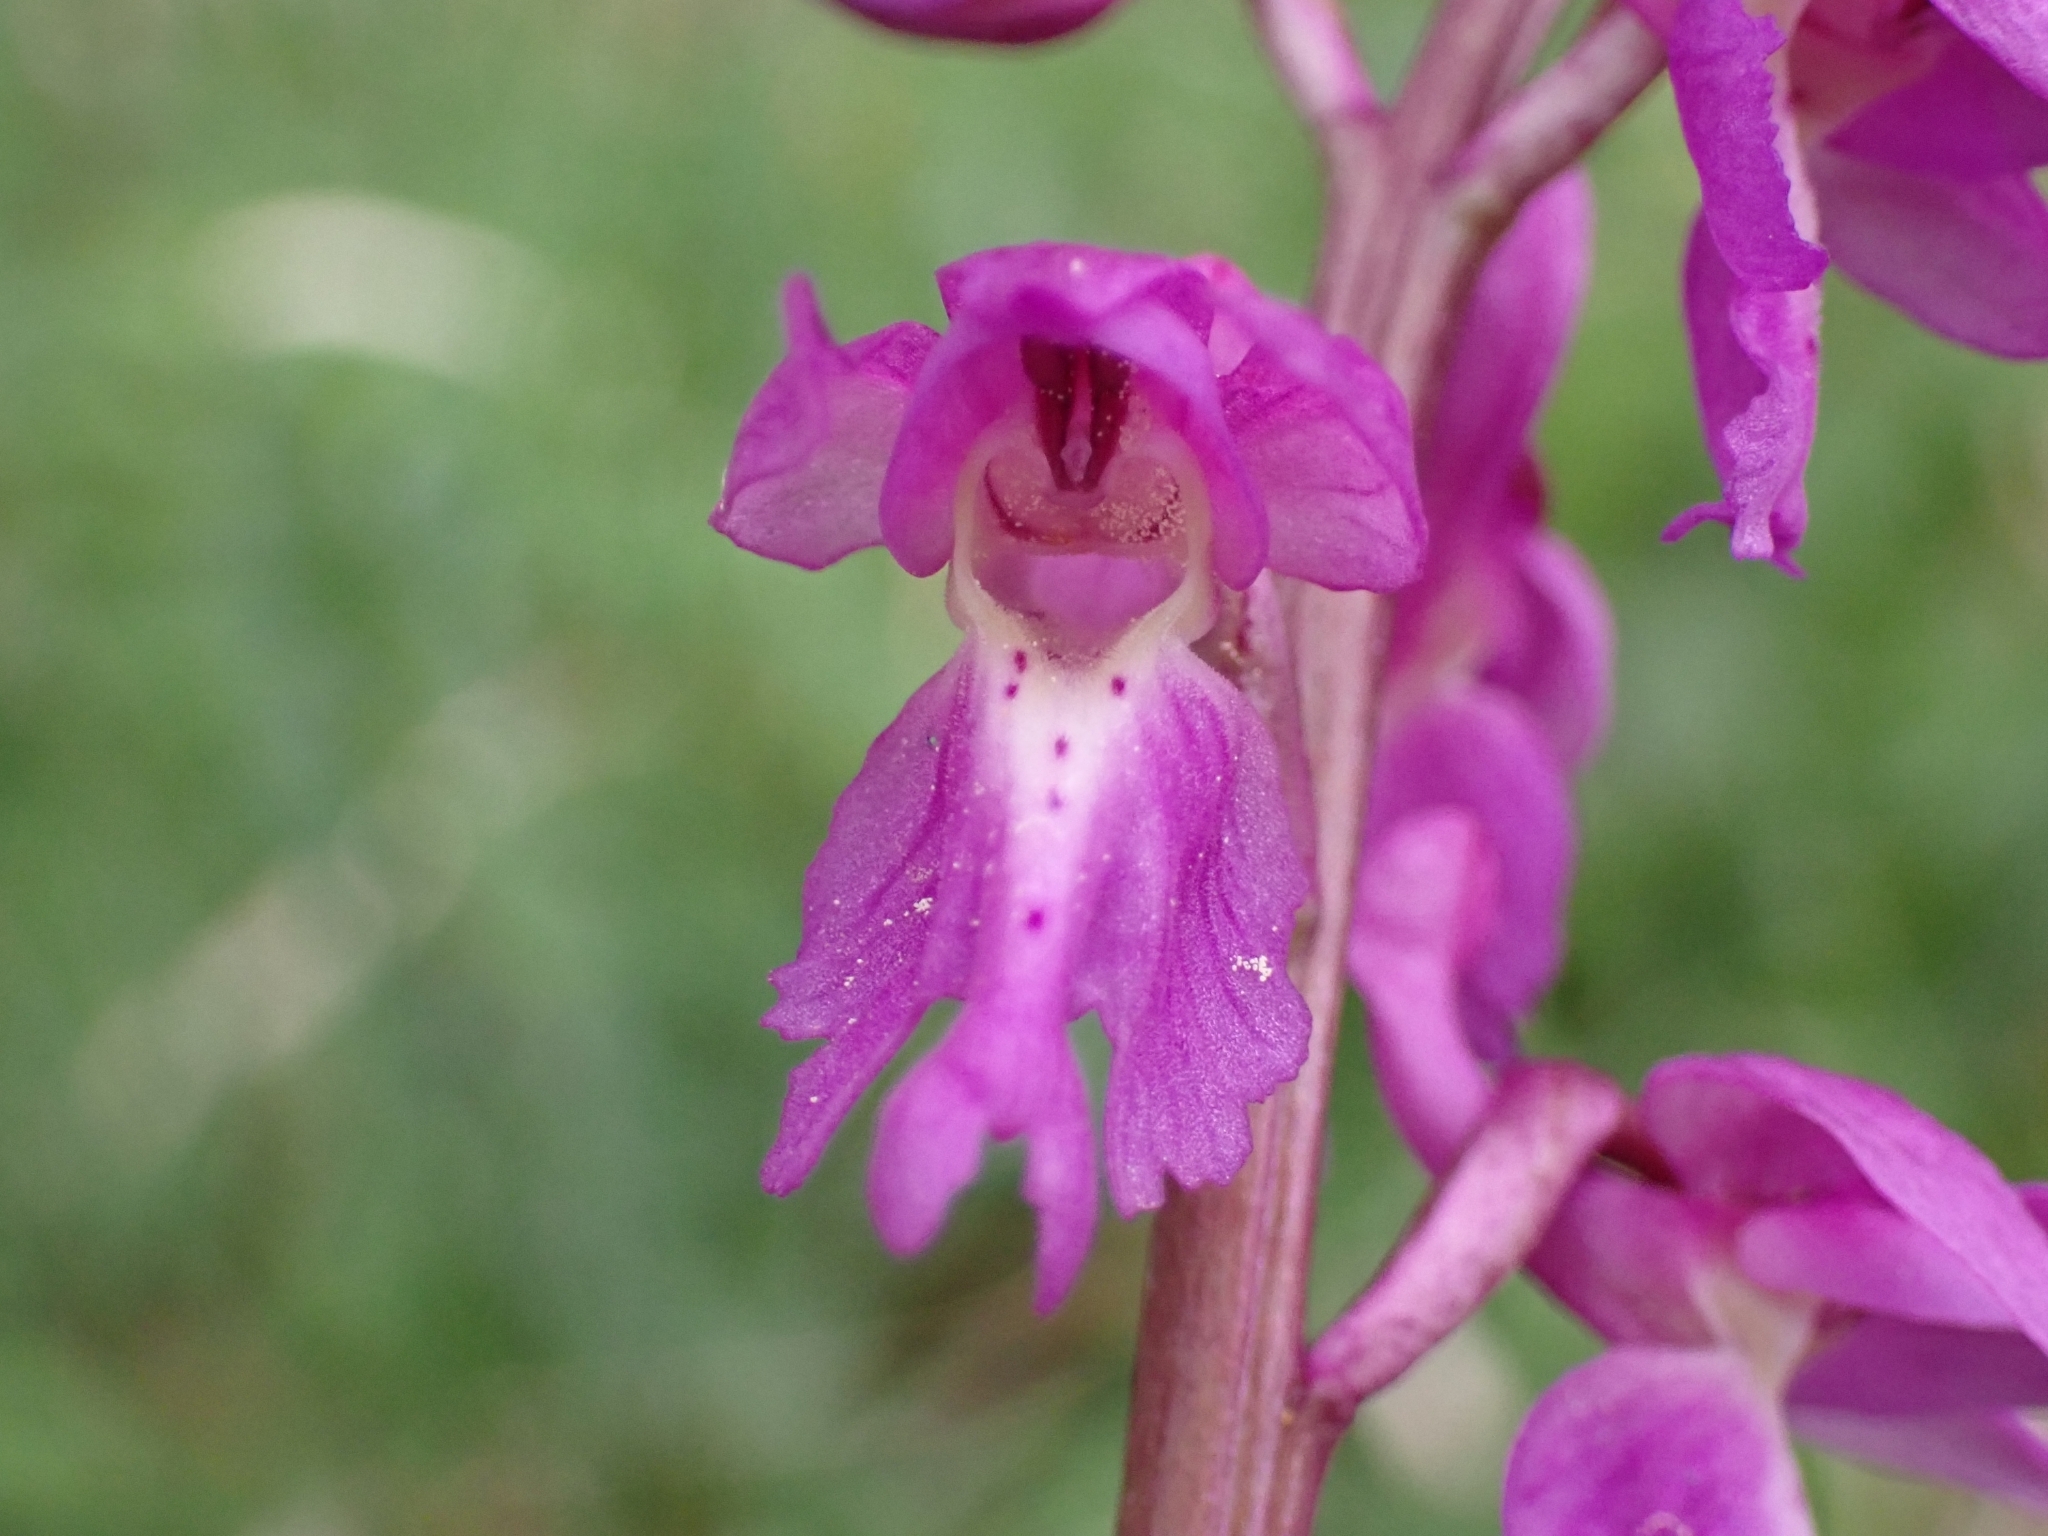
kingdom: Plantae
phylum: Tracheophyta
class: Liliopsida
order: Asparagales
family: Orchidaceae
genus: Orchis
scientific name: Orchis mascula
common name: Early-purple orchid
